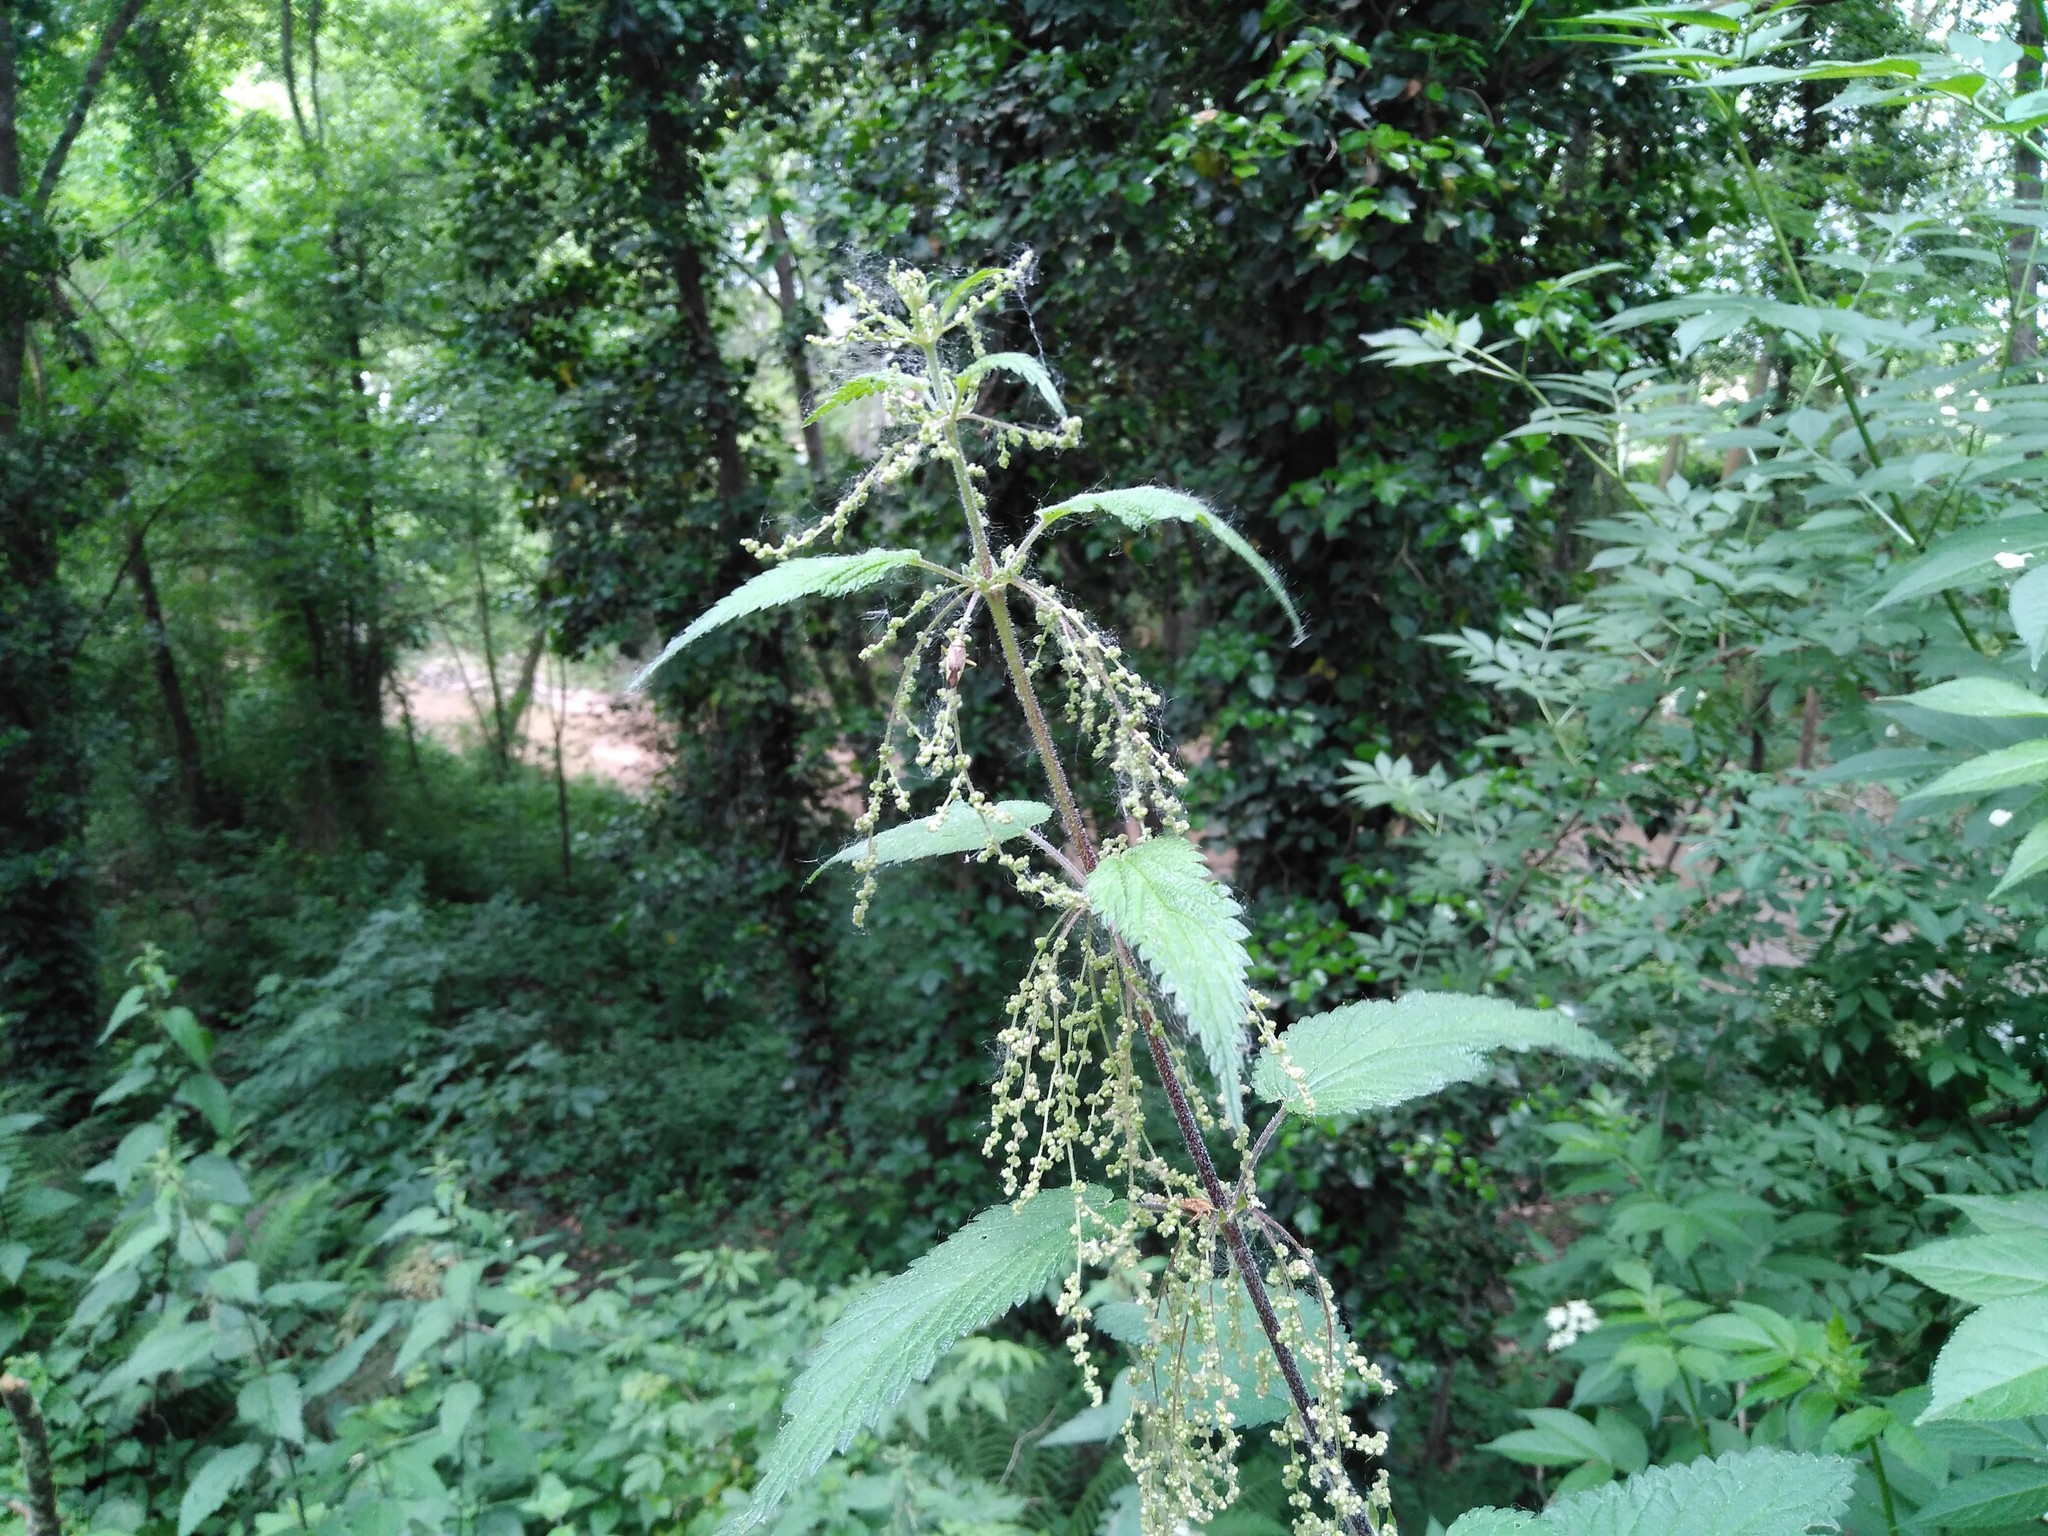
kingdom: Plantae
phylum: Tracheophyta
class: Magnoliopsida
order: Rosales
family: Urticaceae
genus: Urtica
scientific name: Urtica dioica
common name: Common nettle
